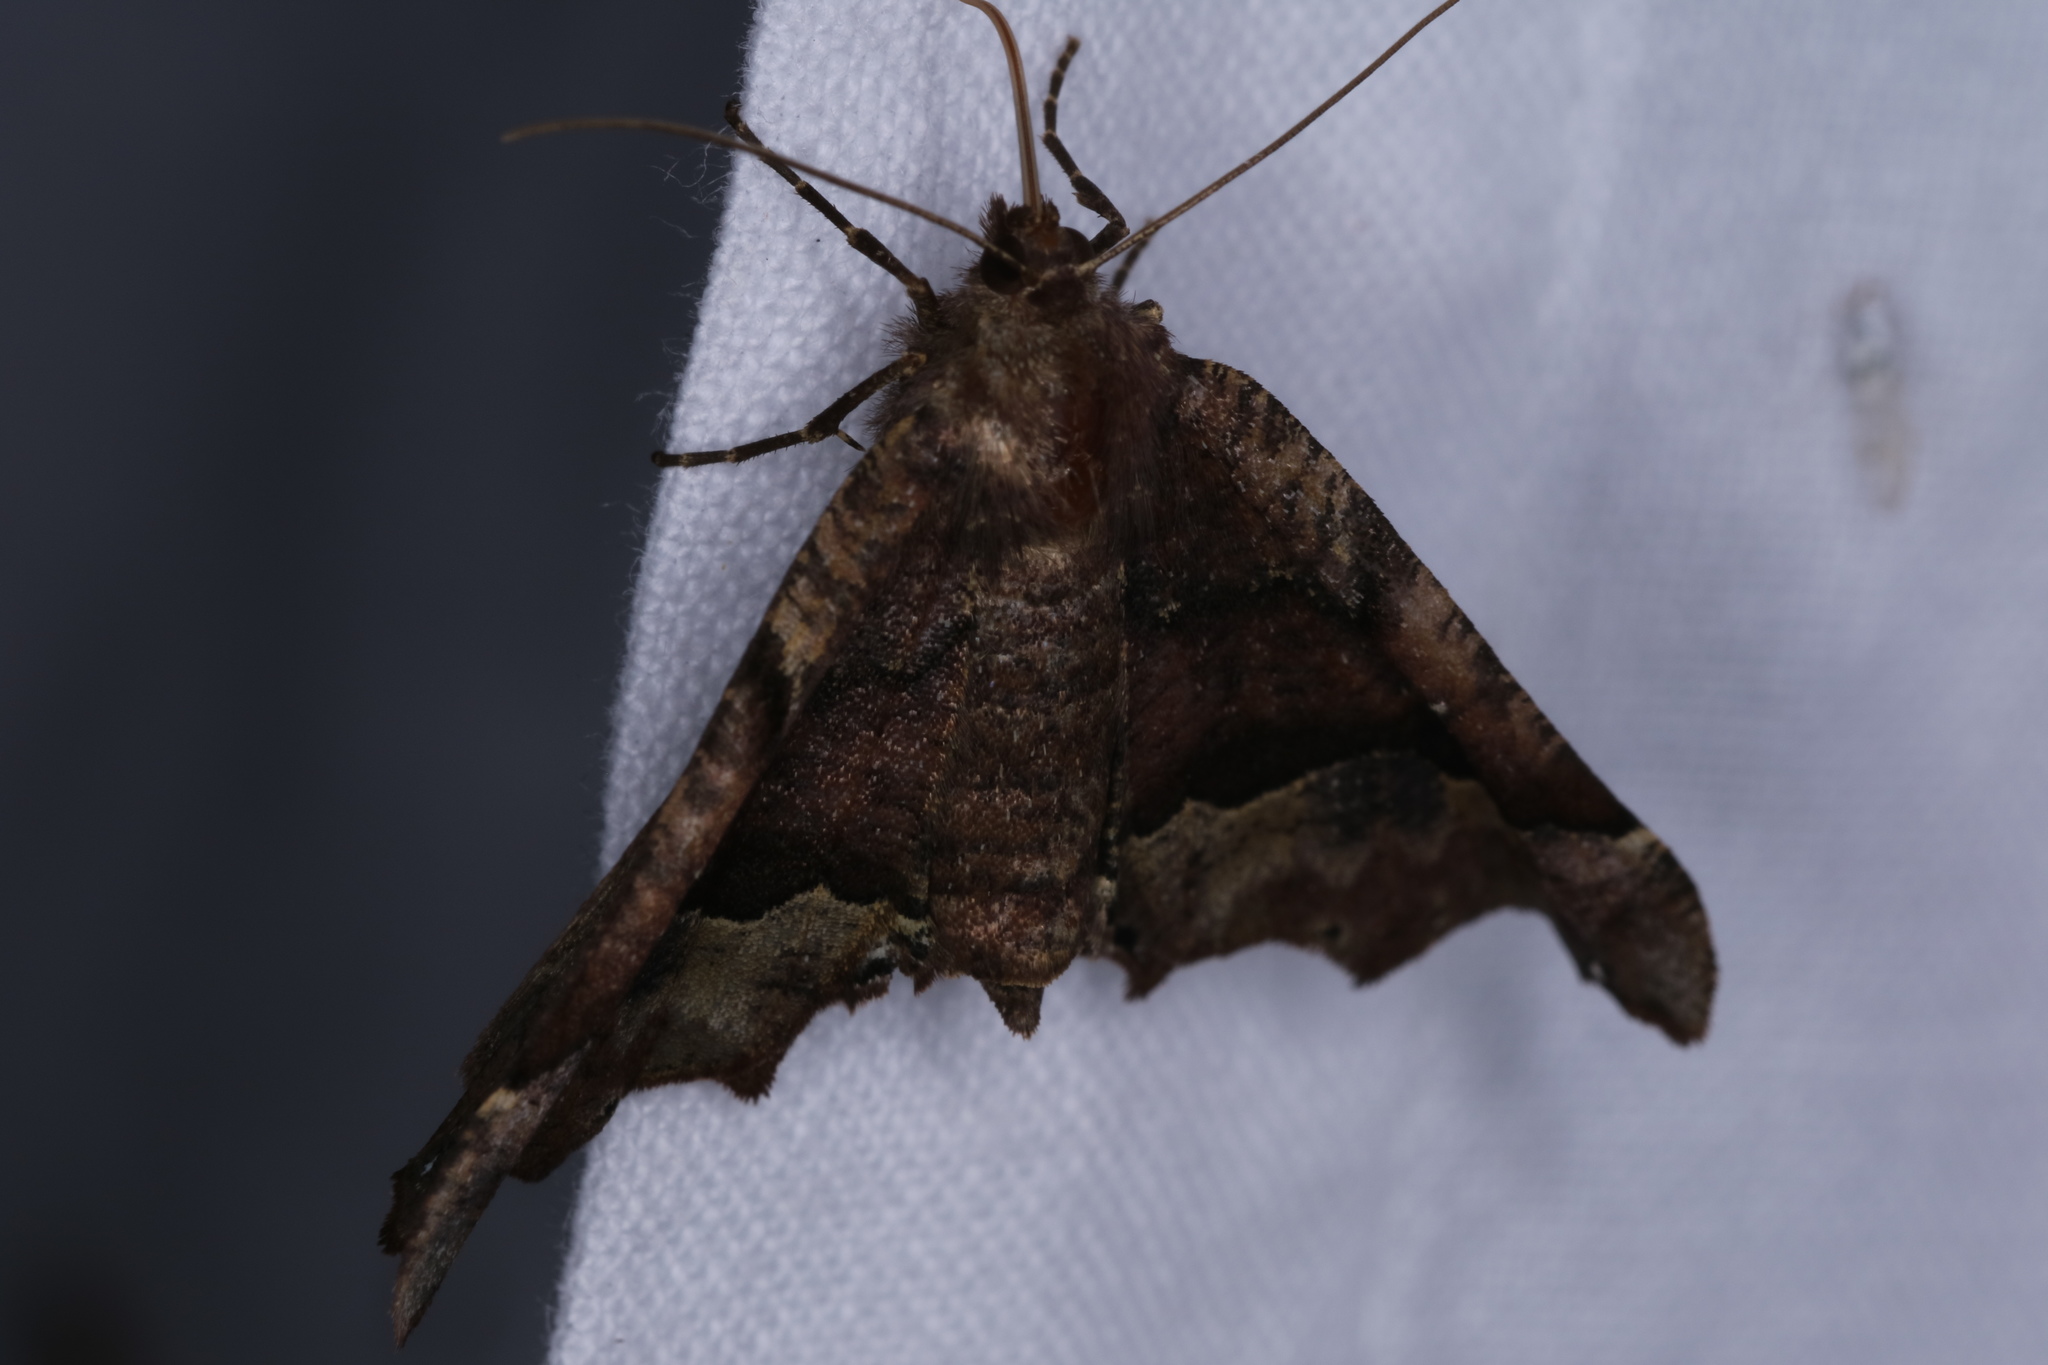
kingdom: Animalia
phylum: Arthropoda
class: Insecta
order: Lepidoptera
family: Geometridae
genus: Pero
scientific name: Pero morrisonaria
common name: Morrison's pero
